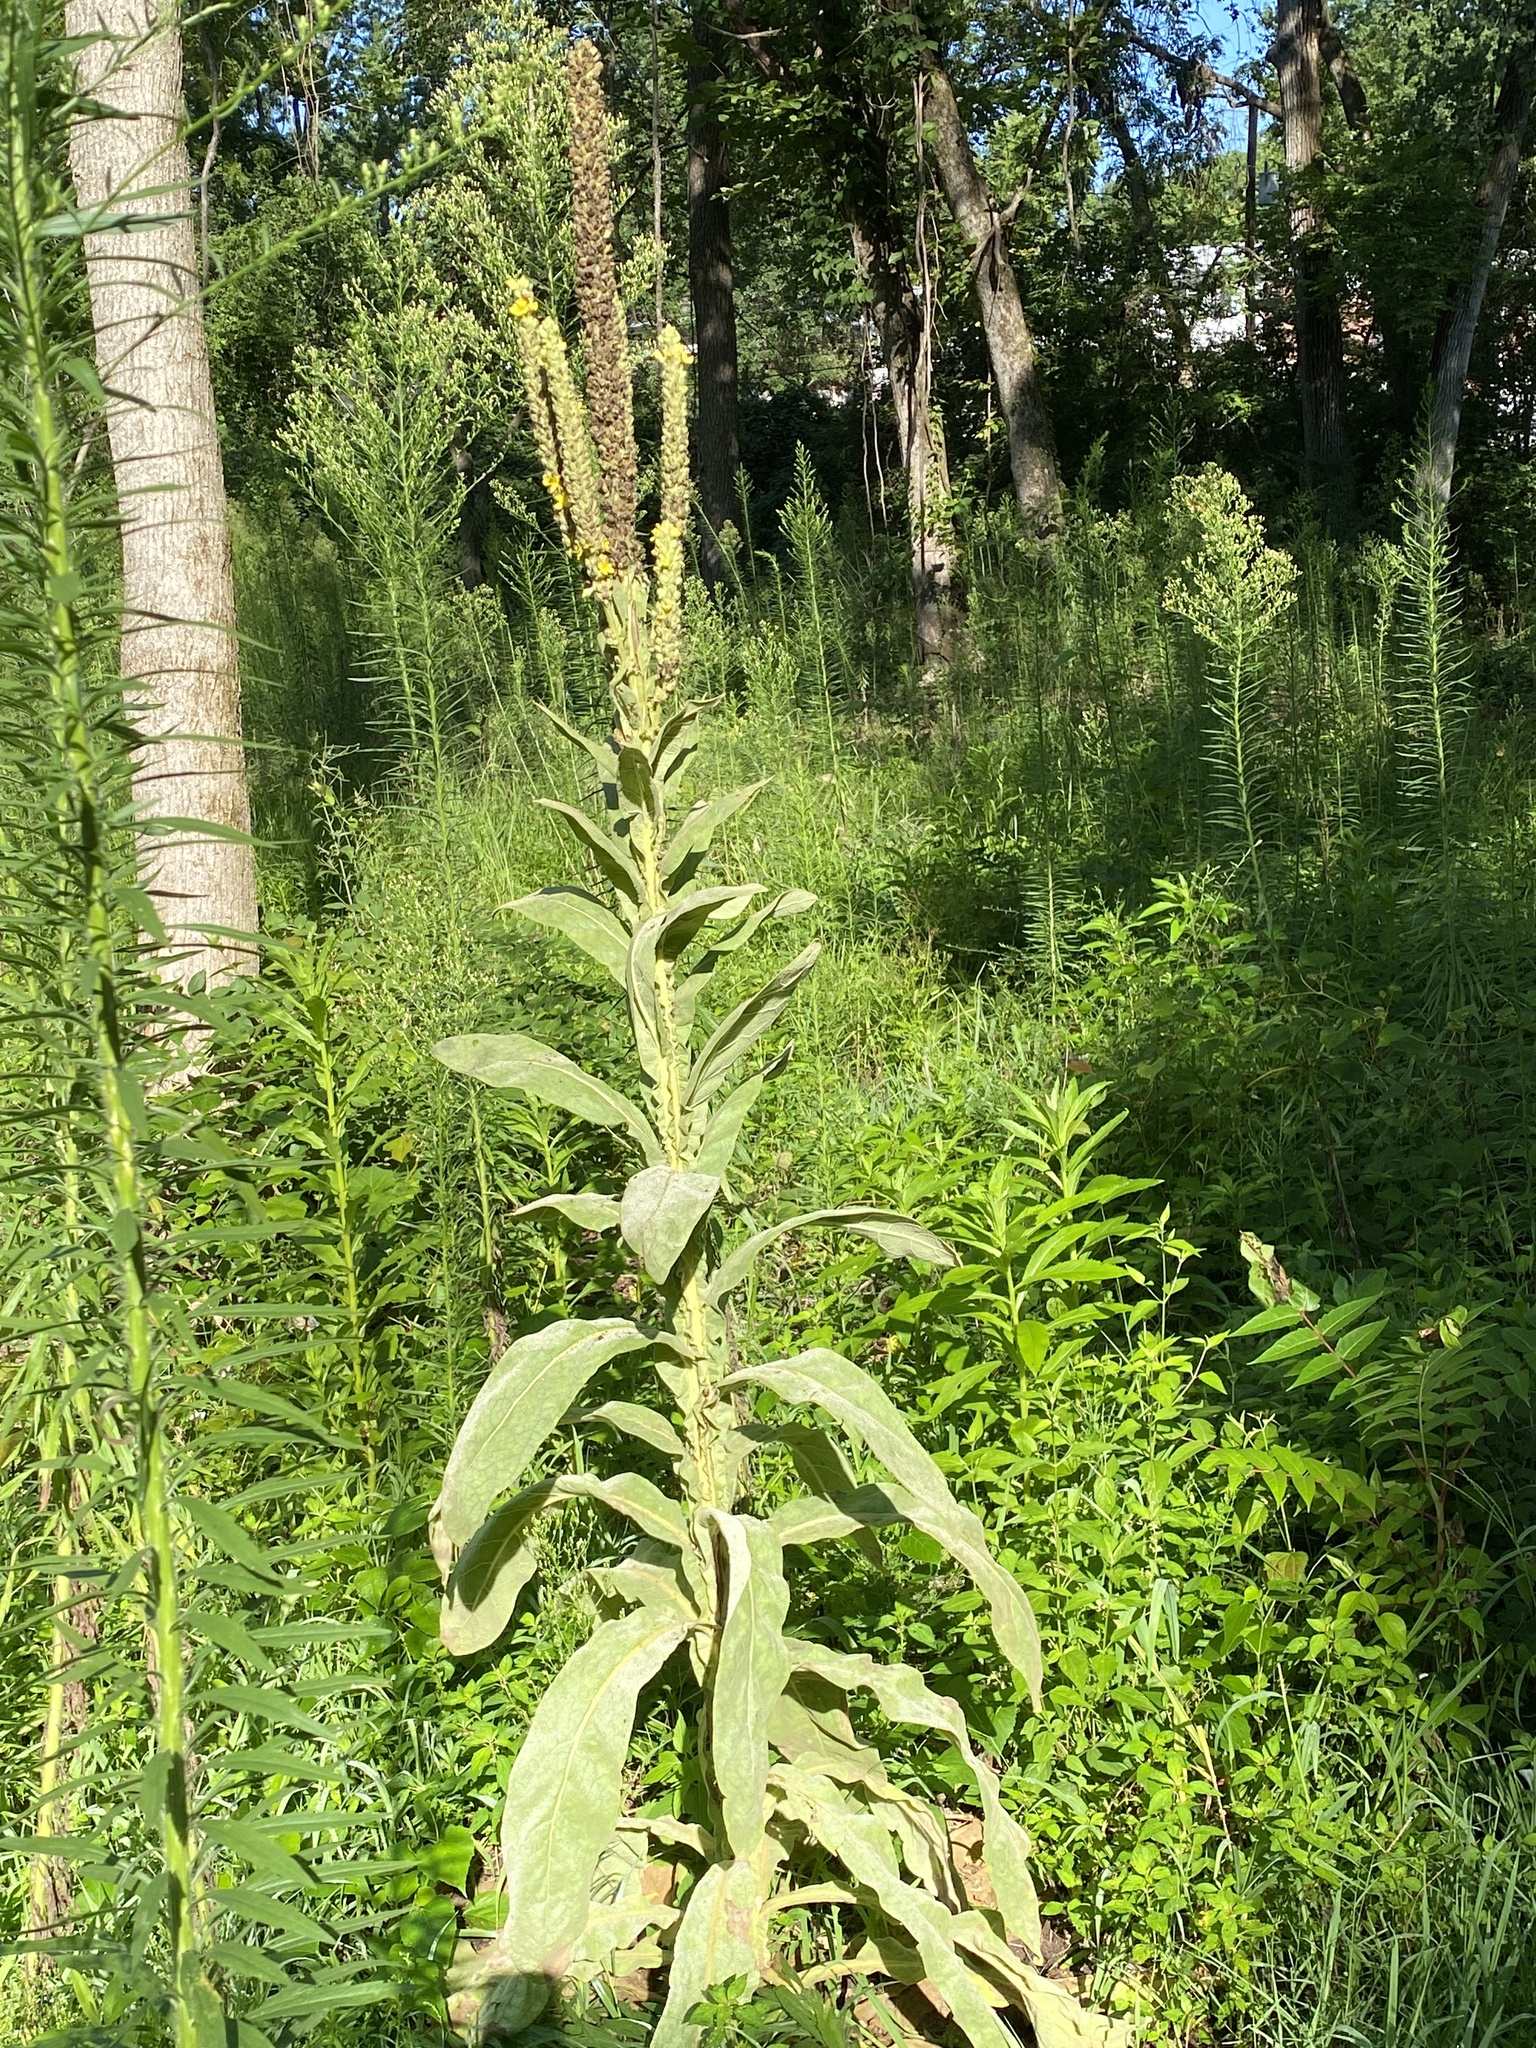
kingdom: Plantae
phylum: Tracheophyta
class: Magnoliopsida
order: Lamiales
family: Scrophulariaceae
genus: Verbascum
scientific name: Verbascum thapsus
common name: Common mullein
